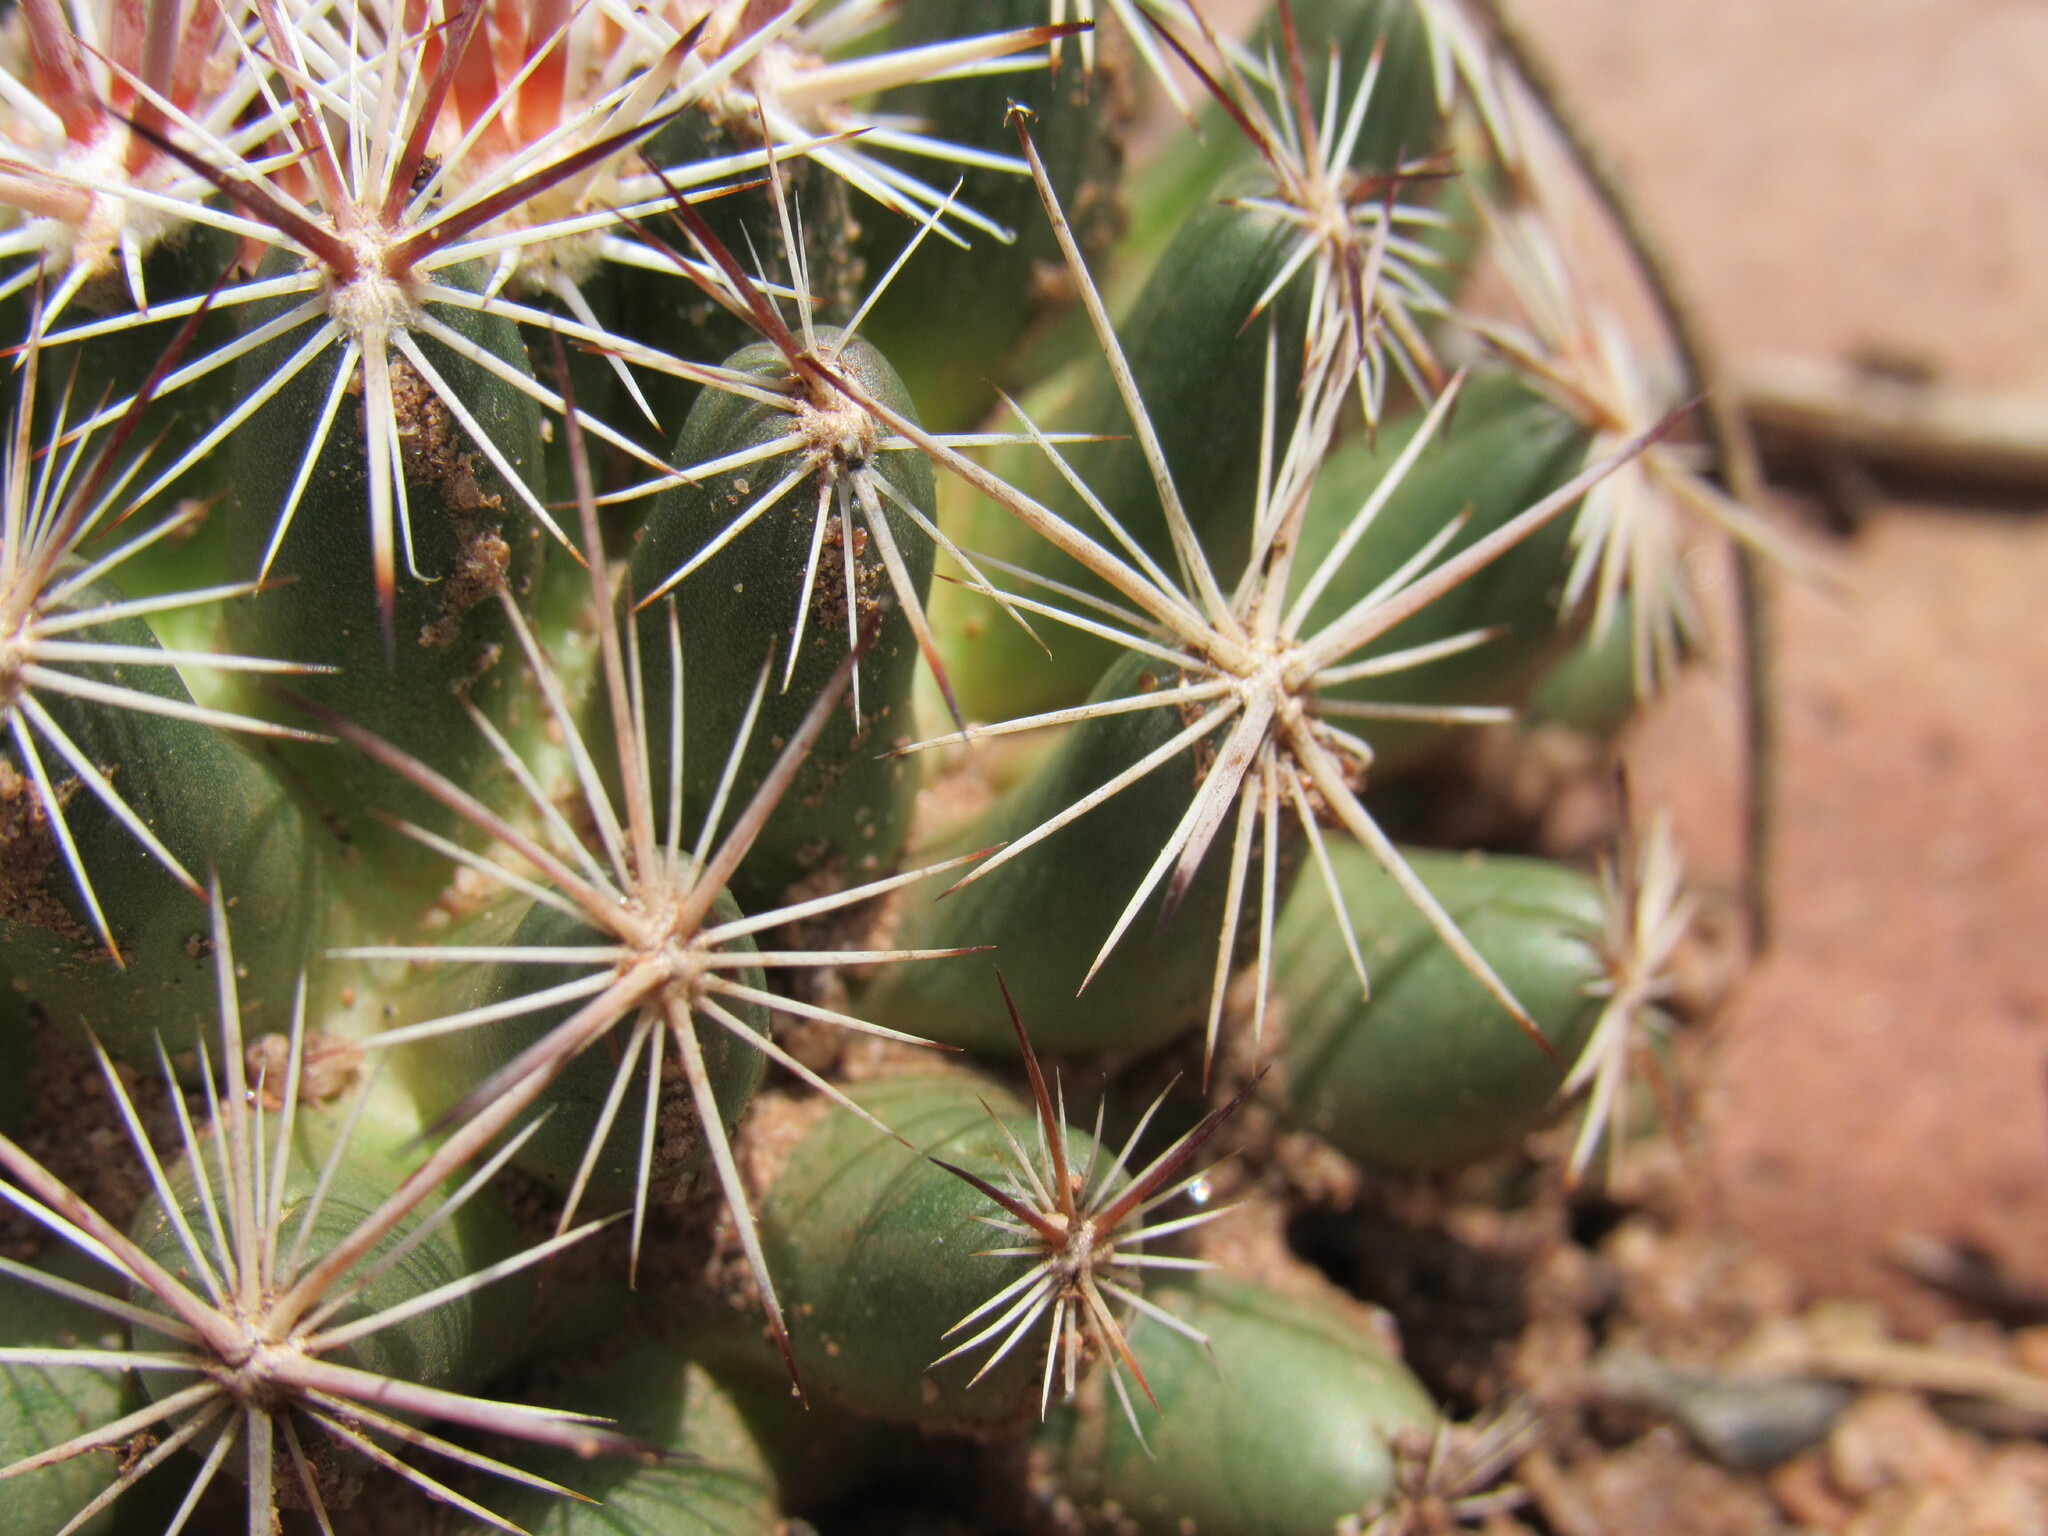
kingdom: Plantae
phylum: Tracheophyta
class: Magnoliopsida
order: Caryophyllales
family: Cactaceae
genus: Pelecyphora
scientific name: Pelecyphora vivipara
